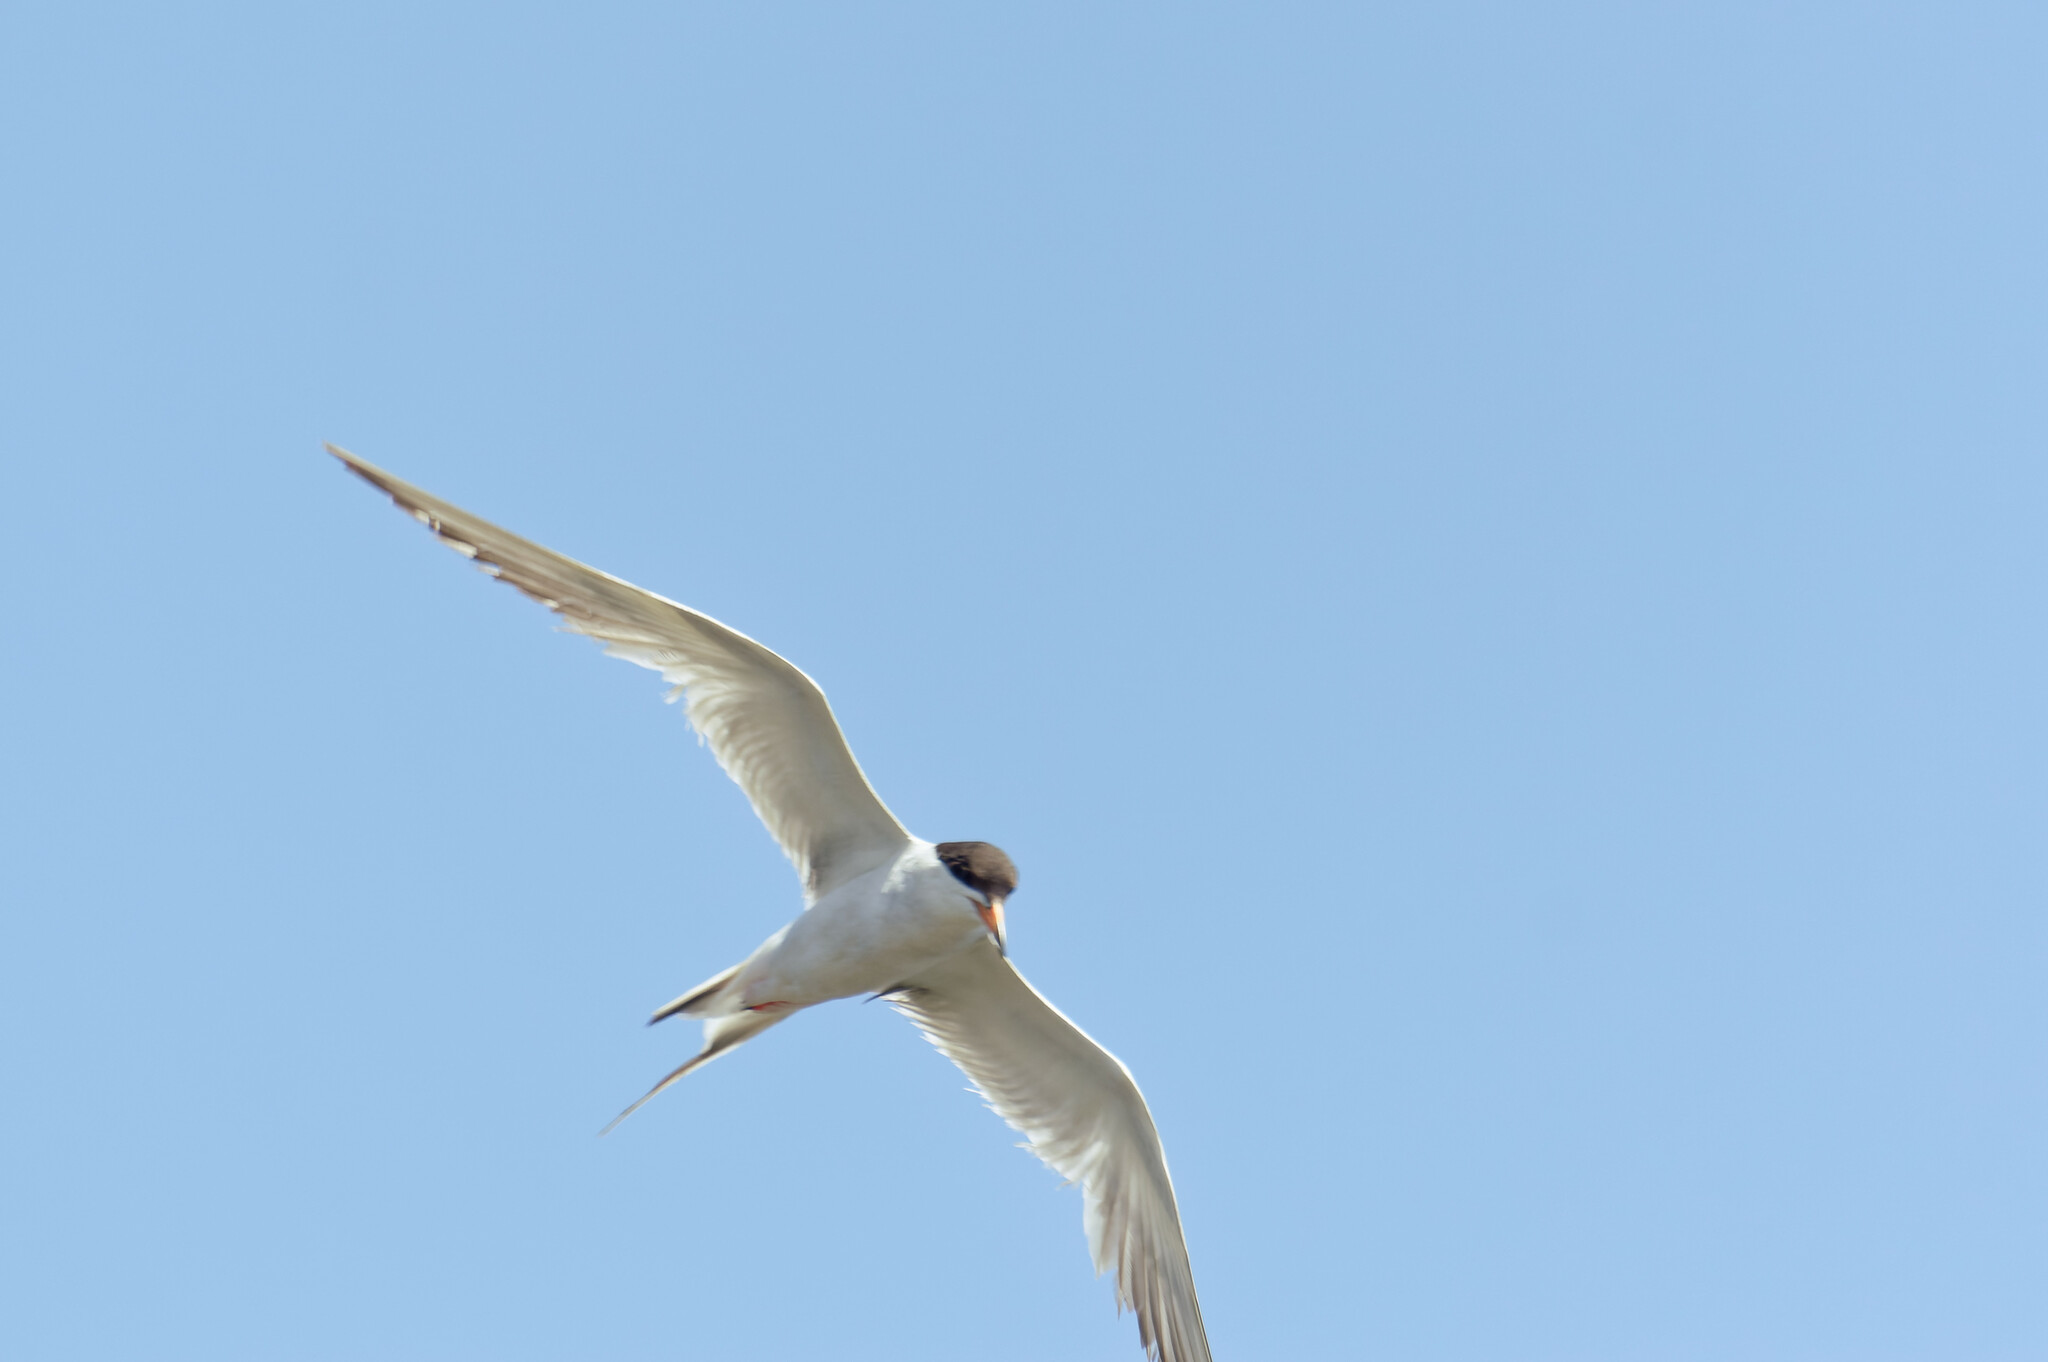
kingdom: Animalia
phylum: Chordata
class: Aves
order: Charadriiformes
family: Laridae
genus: Sterna
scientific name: Sterna forsteri
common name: Forster's tern
